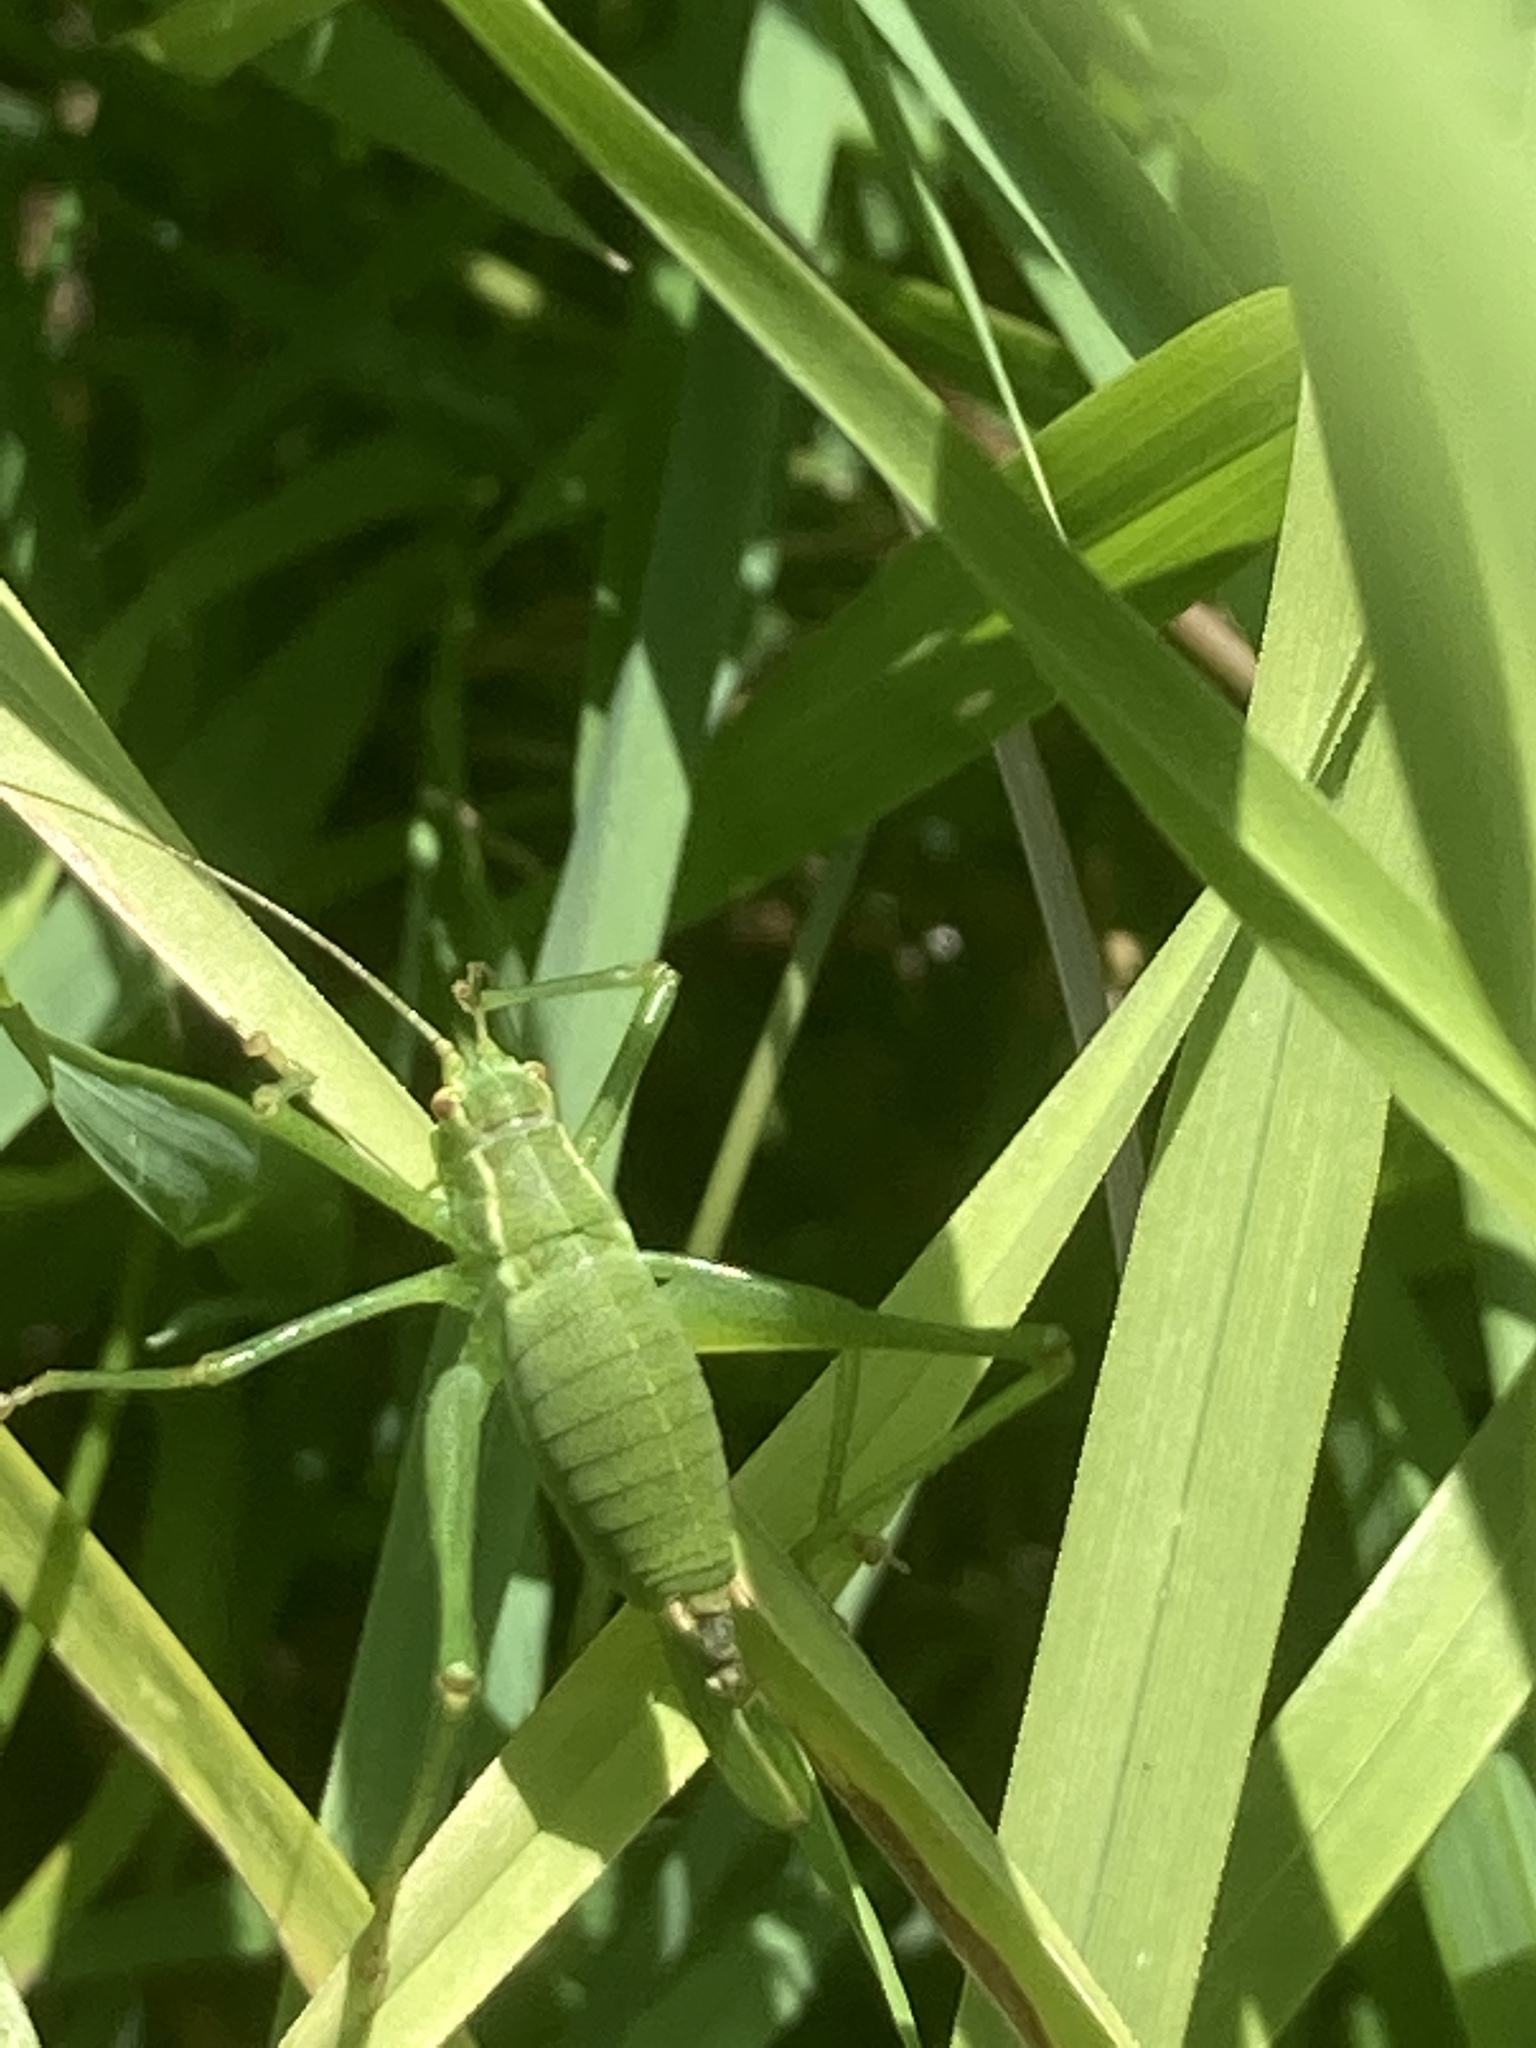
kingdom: Animalia
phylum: Arthropoda
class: Insecta
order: Orthoptera
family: Tettigoniidae
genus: Leptophyes
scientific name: Leptophyes punctatissima
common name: Speckled bush-cricket
